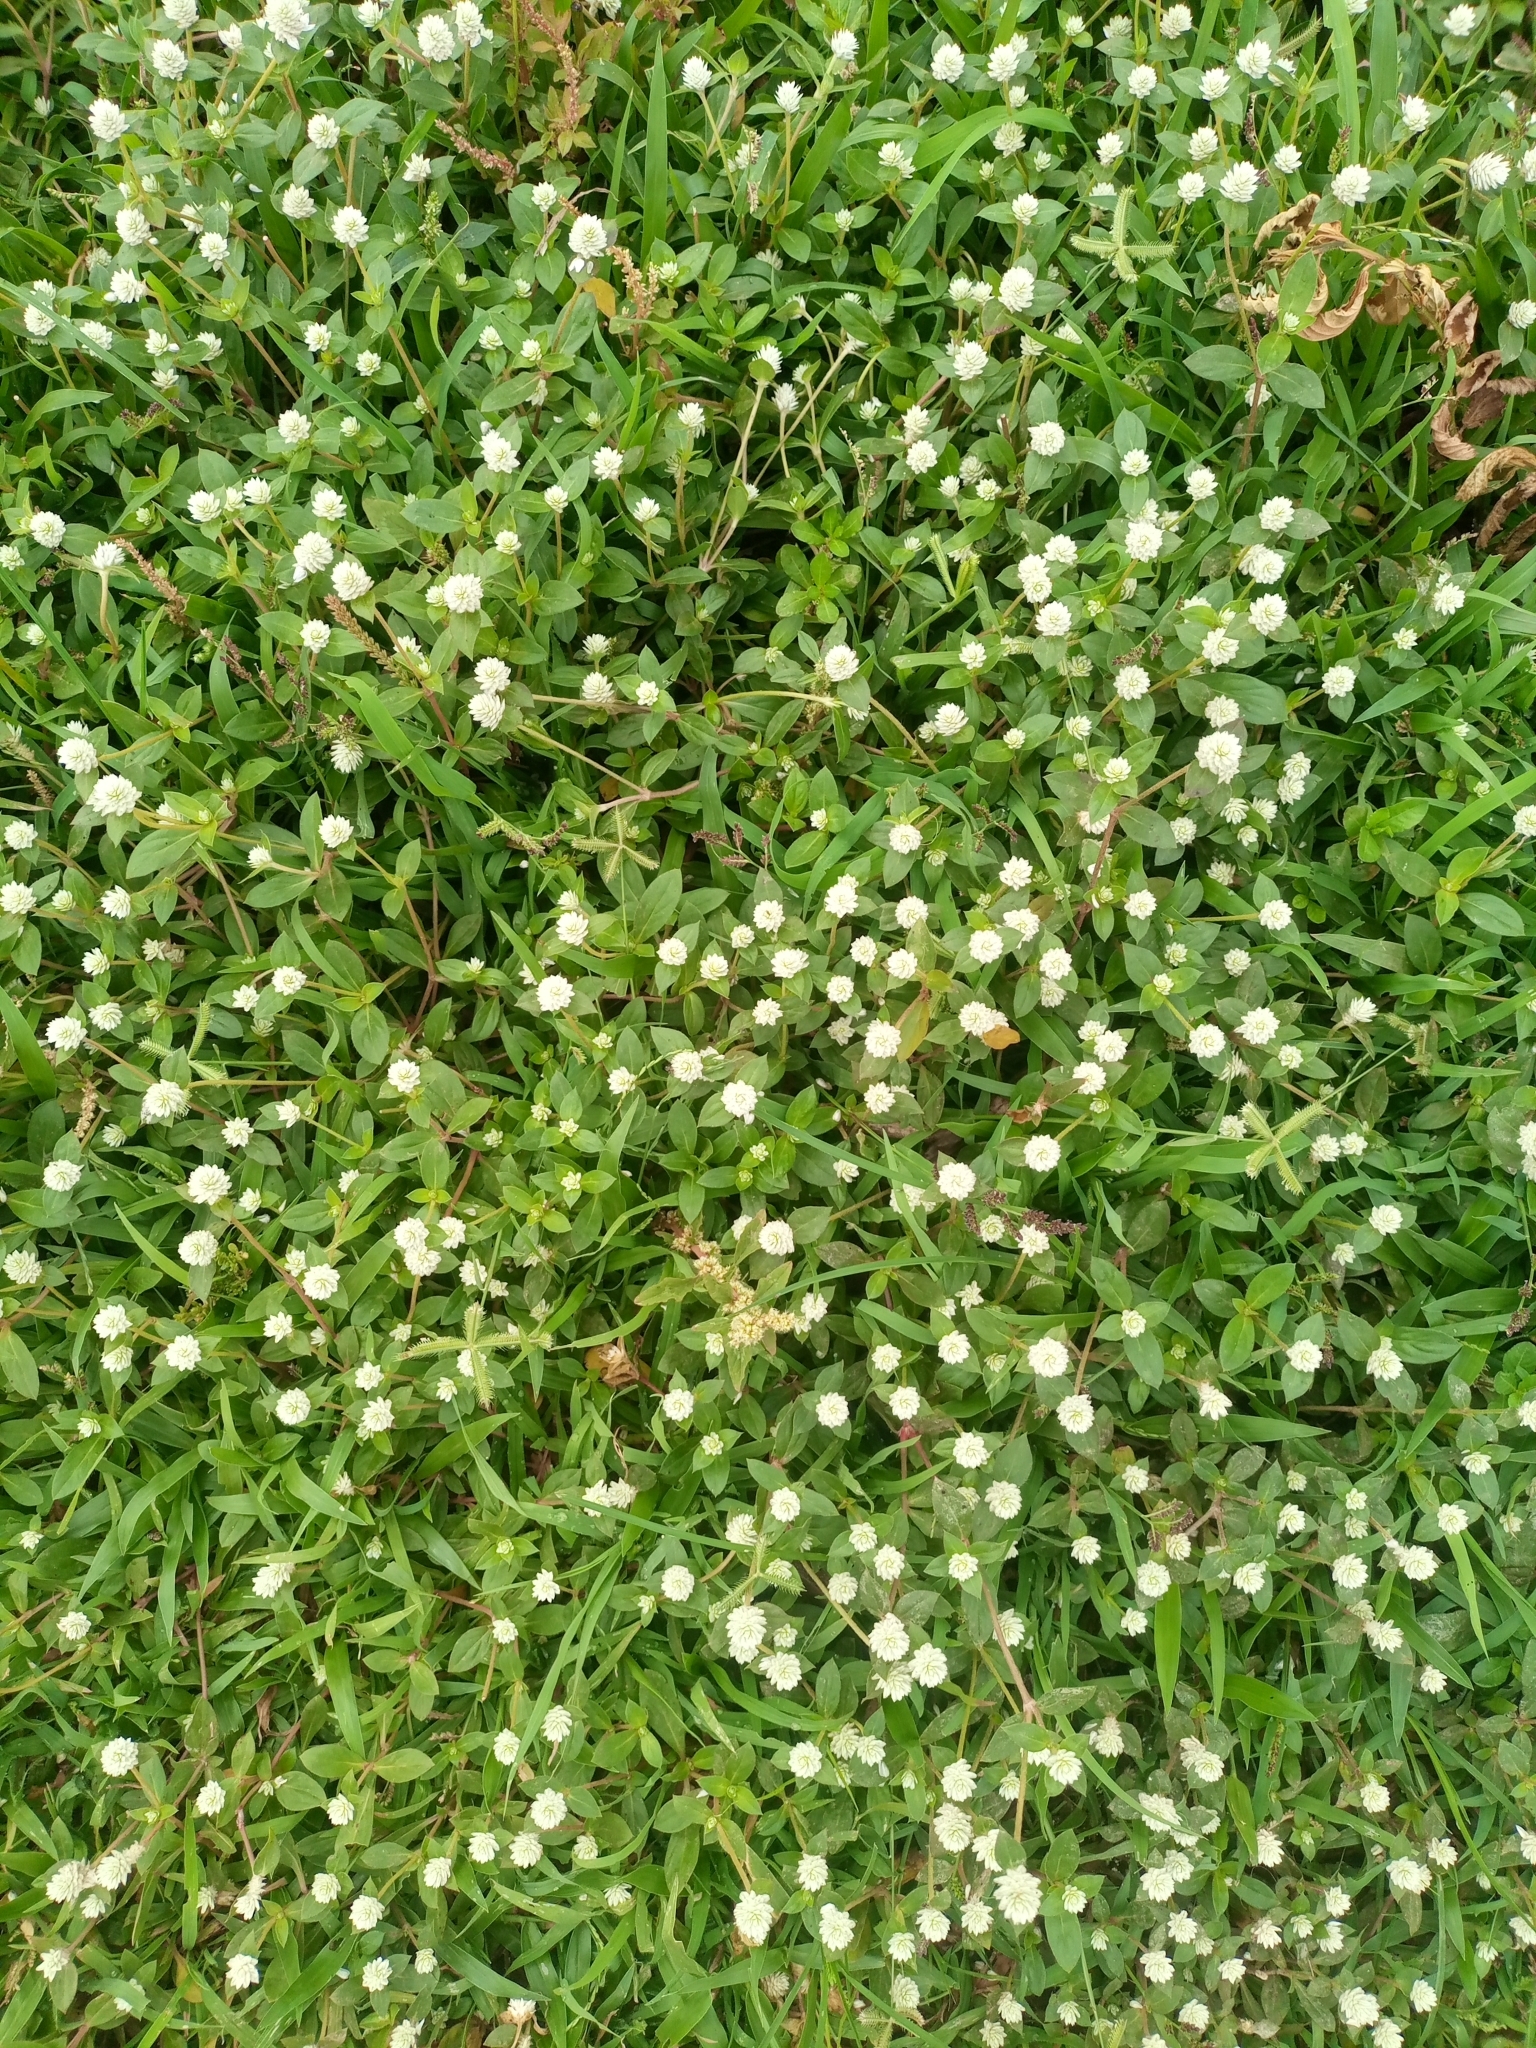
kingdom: Plantae
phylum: Tracheophyta
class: Magnoliopsida
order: Caryophyllales
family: Amaranthaceae
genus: Gomphrena
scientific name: Gomphrena celosioides
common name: Gomphrena-weed
